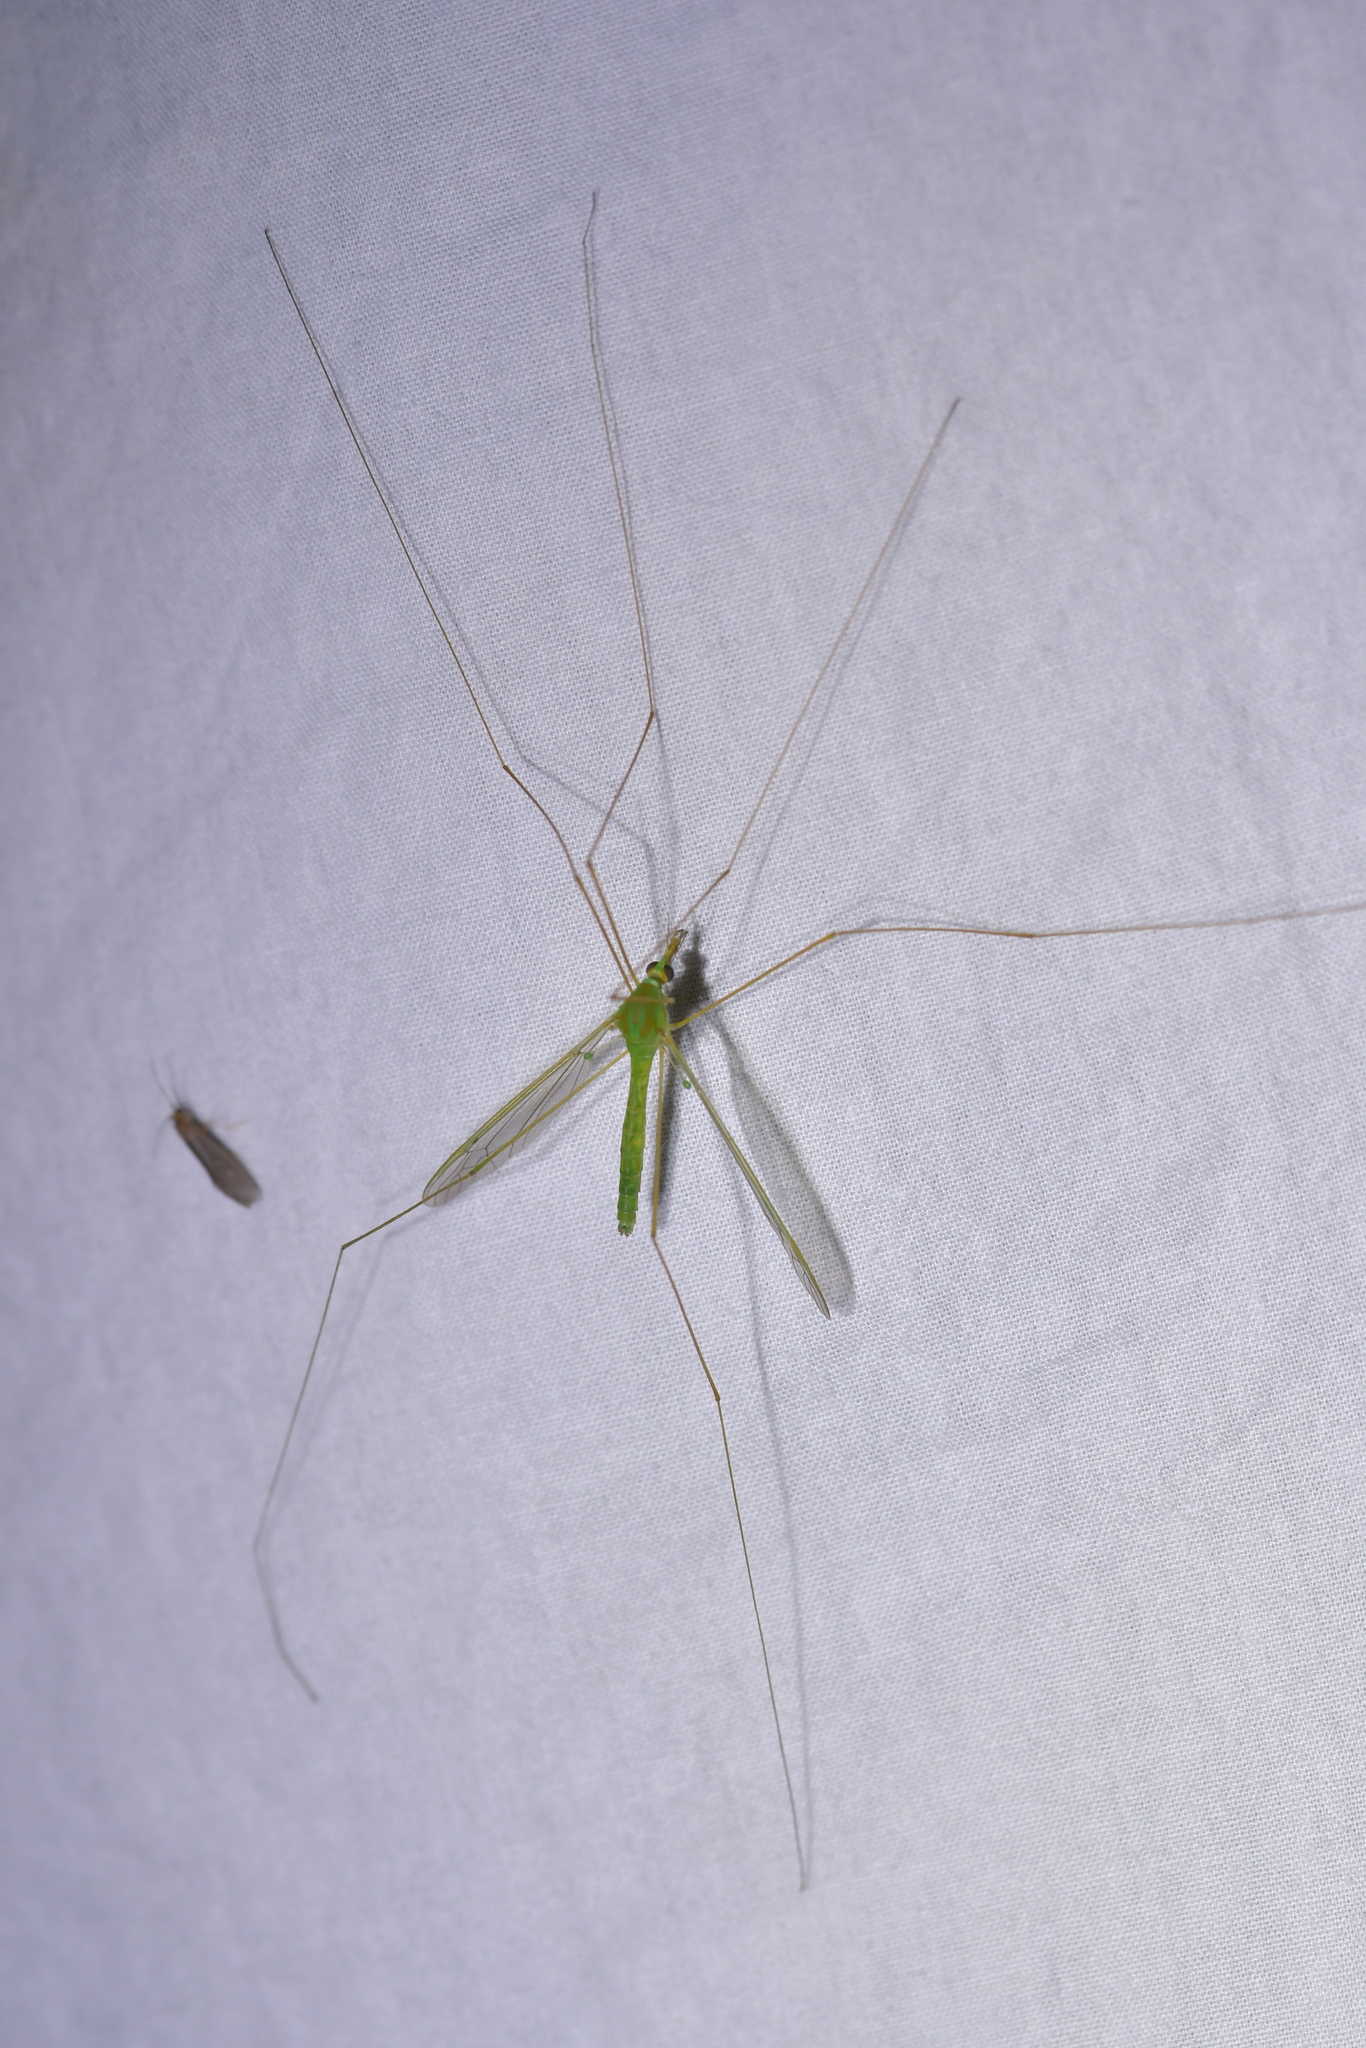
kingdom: Animalia
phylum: Arthropoda
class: Insecta
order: Diptera
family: Tipulidae
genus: Leptotarsus
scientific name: Leptotarsus virescens
